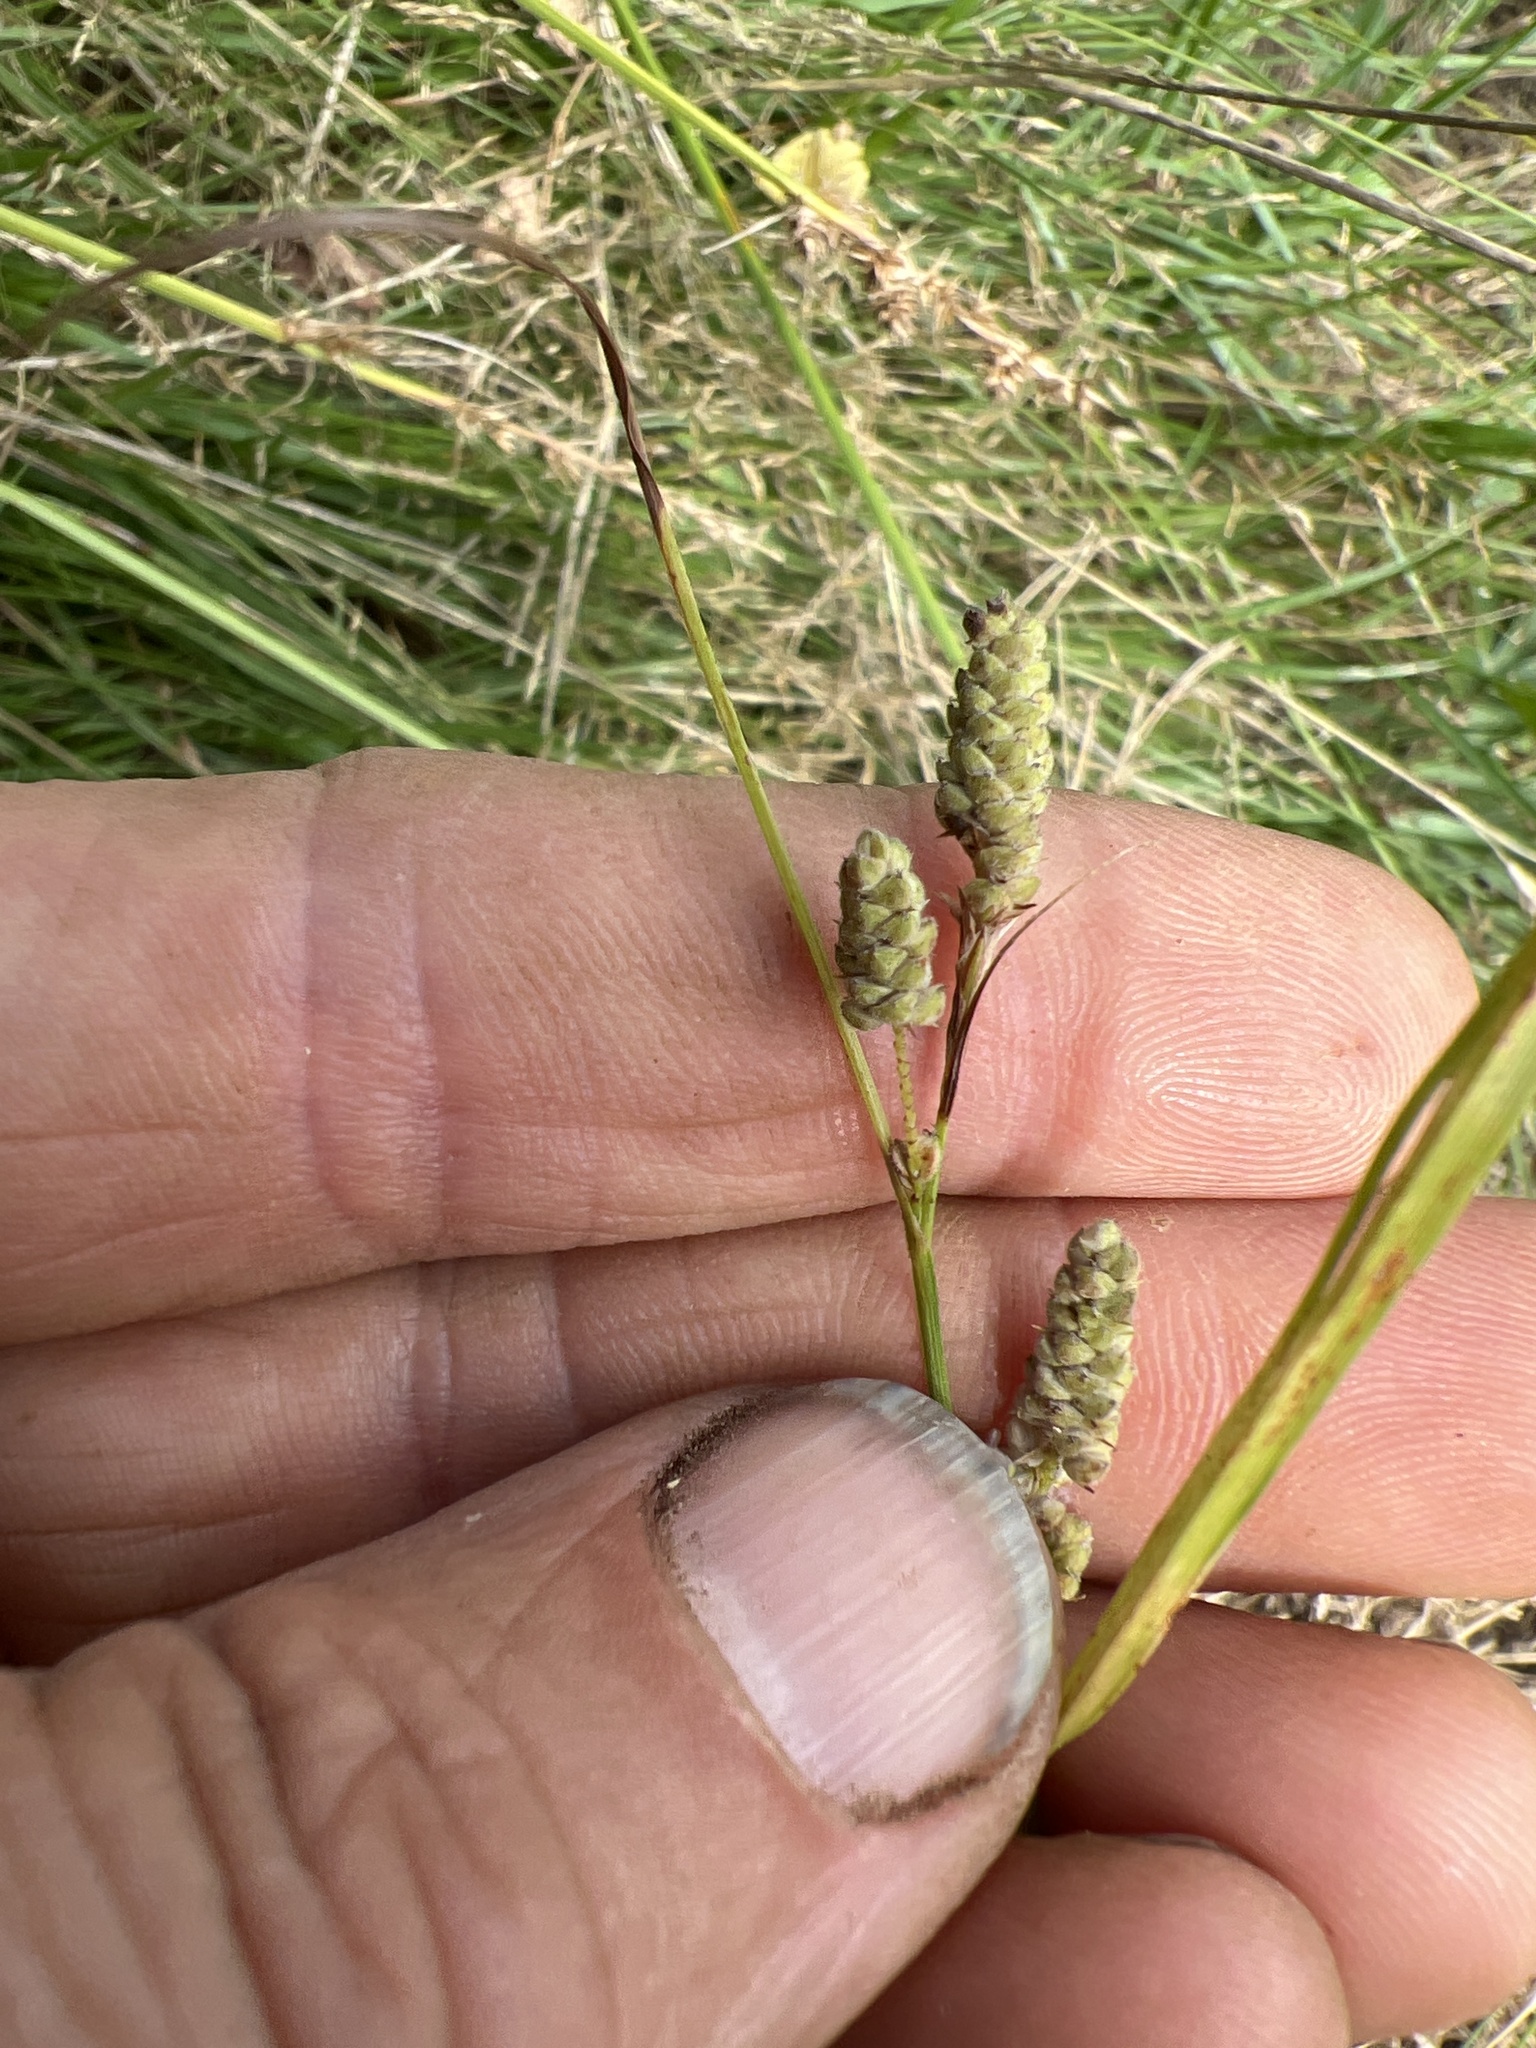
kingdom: Plantae
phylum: Tracheophyta
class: Liliopsida
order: Poales
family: Cyperaceae
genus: Carex
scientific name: Carex swanii
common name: Downy green sedge
